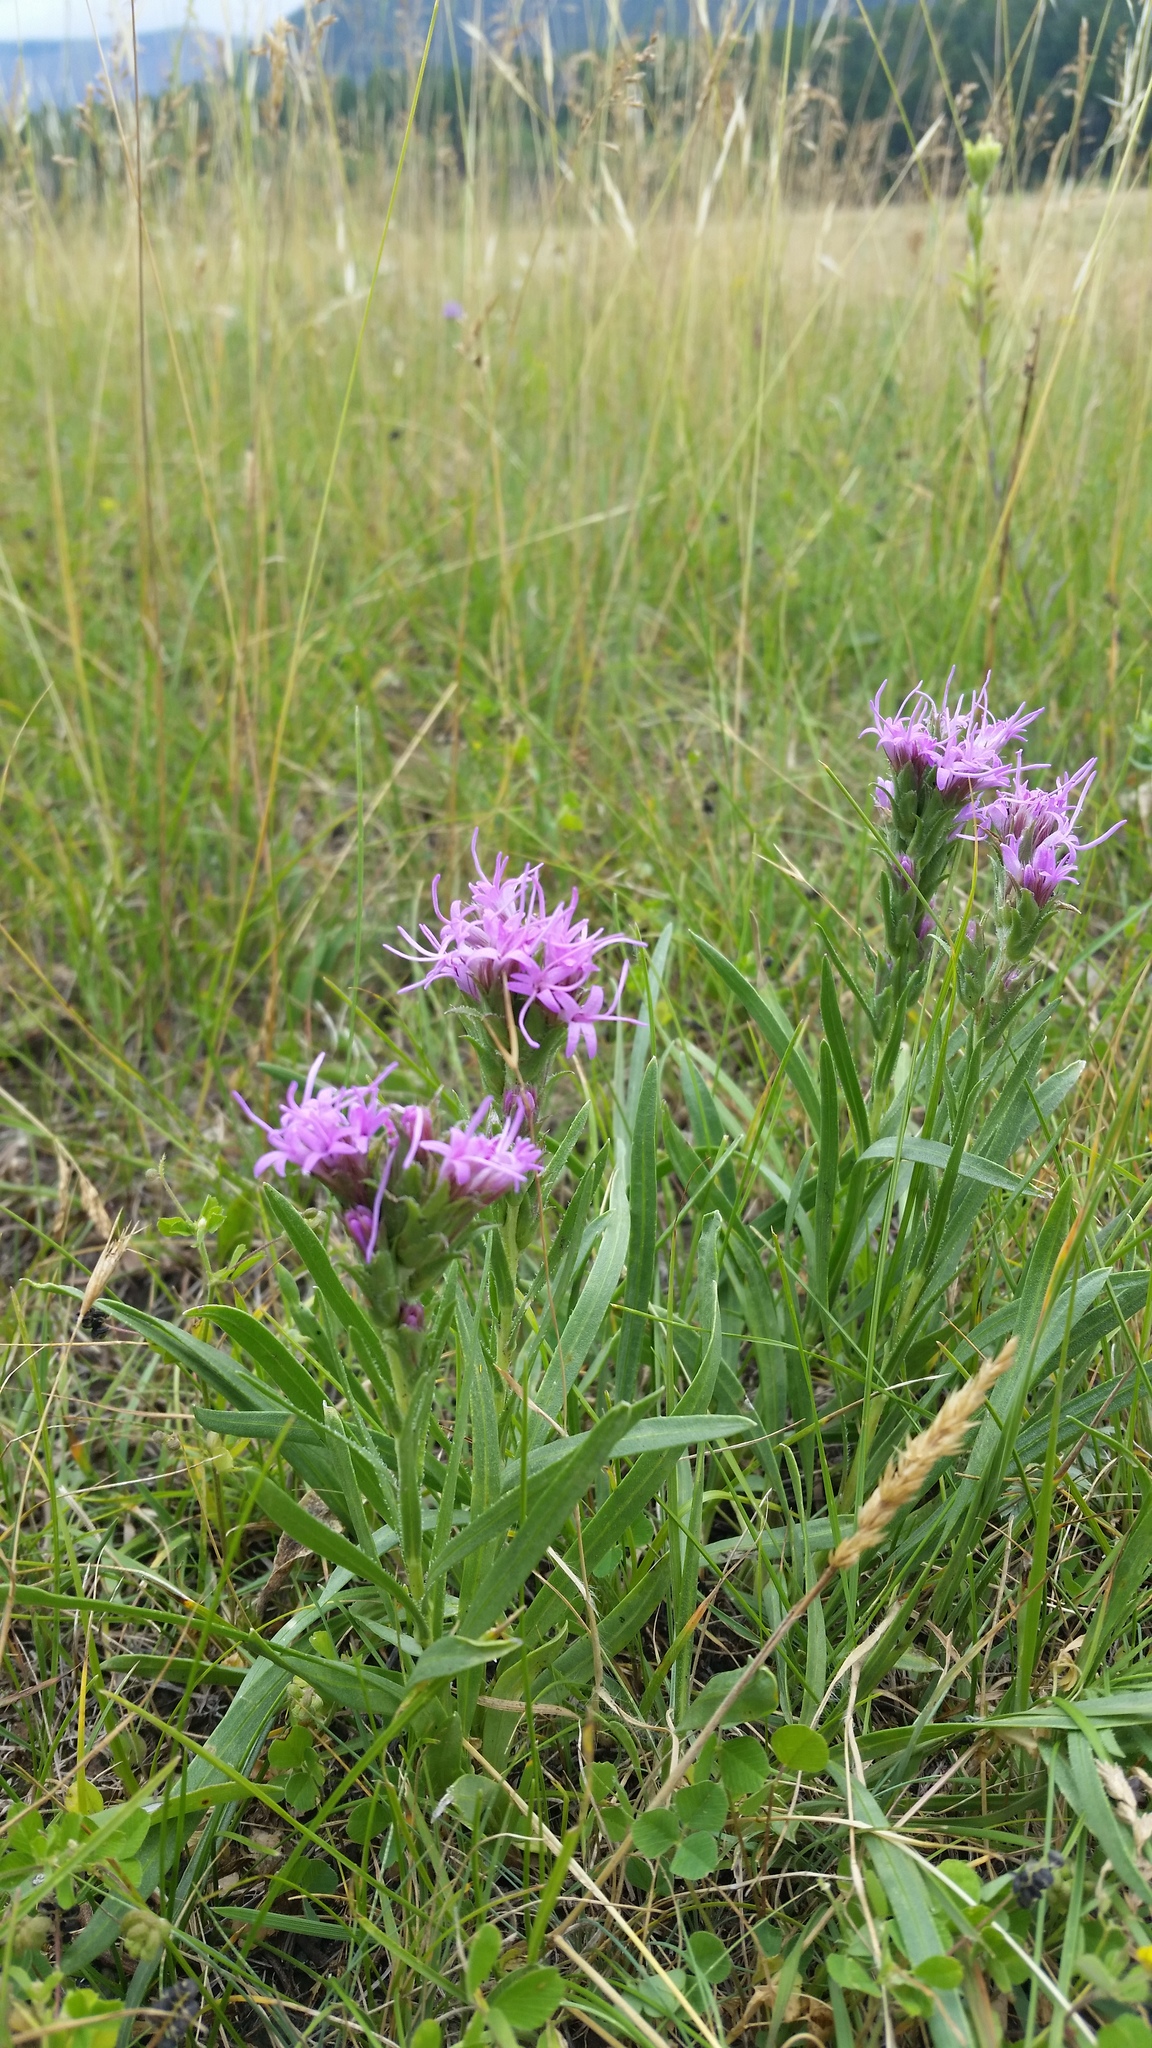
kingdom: Plantae
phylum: Tracheophyta
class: Magnoliopsida
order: Asterales
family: Asteraceae
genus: Liatris
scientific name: Liatris punctata
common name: Dotted gayfeather
